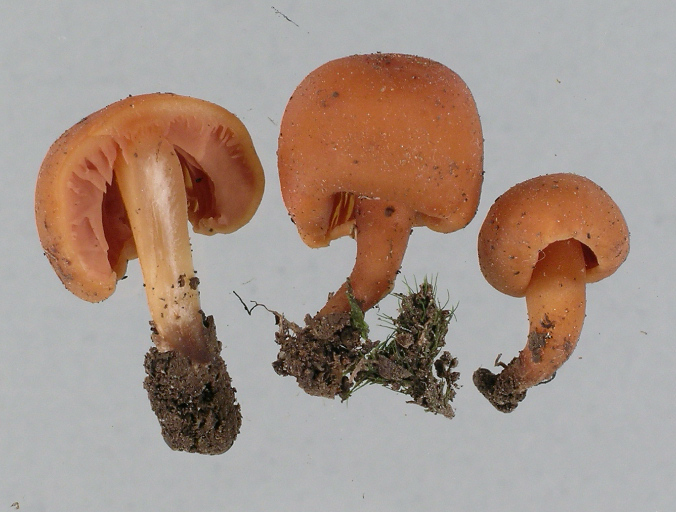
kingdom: Fungi
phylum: Basidiomycota
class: Agaricomycetes
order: Agaricales
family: Macrocystidiaceae
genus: Macrocystidia
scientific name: Macrocystidia reducta
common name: The fishy pouch
